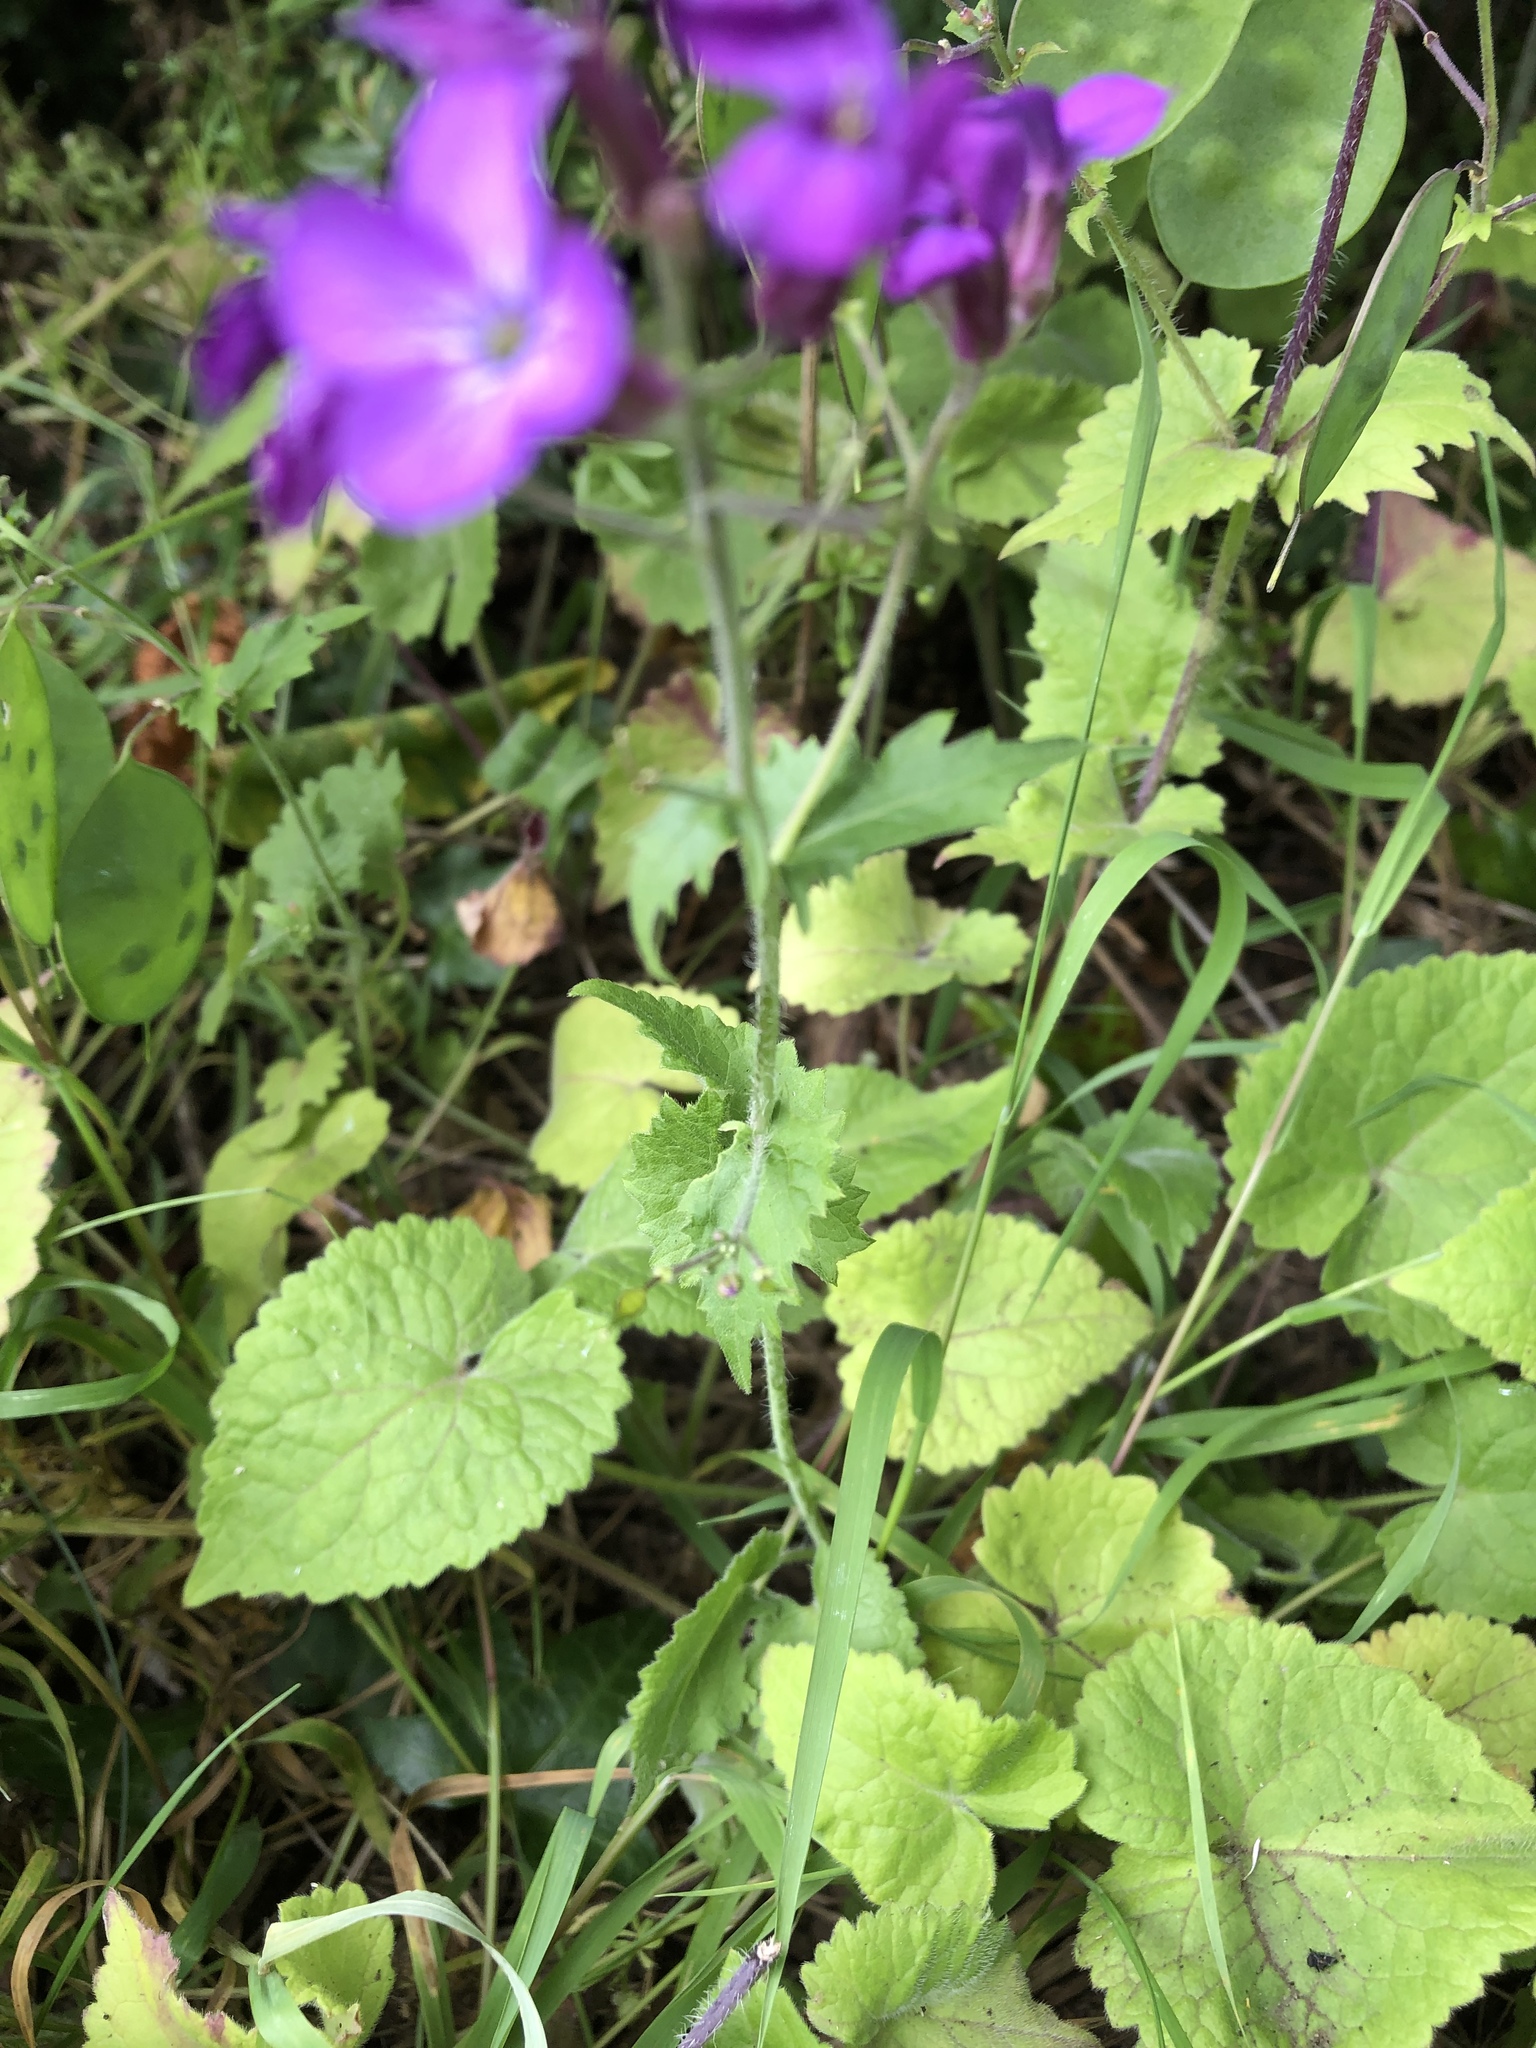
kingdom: Plantae
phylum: Tracheophyta
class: Magnoliopsida
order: Brassicales
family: Brassicaceae
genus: Lunaria
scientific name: Lunaria annua
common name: Honesty
